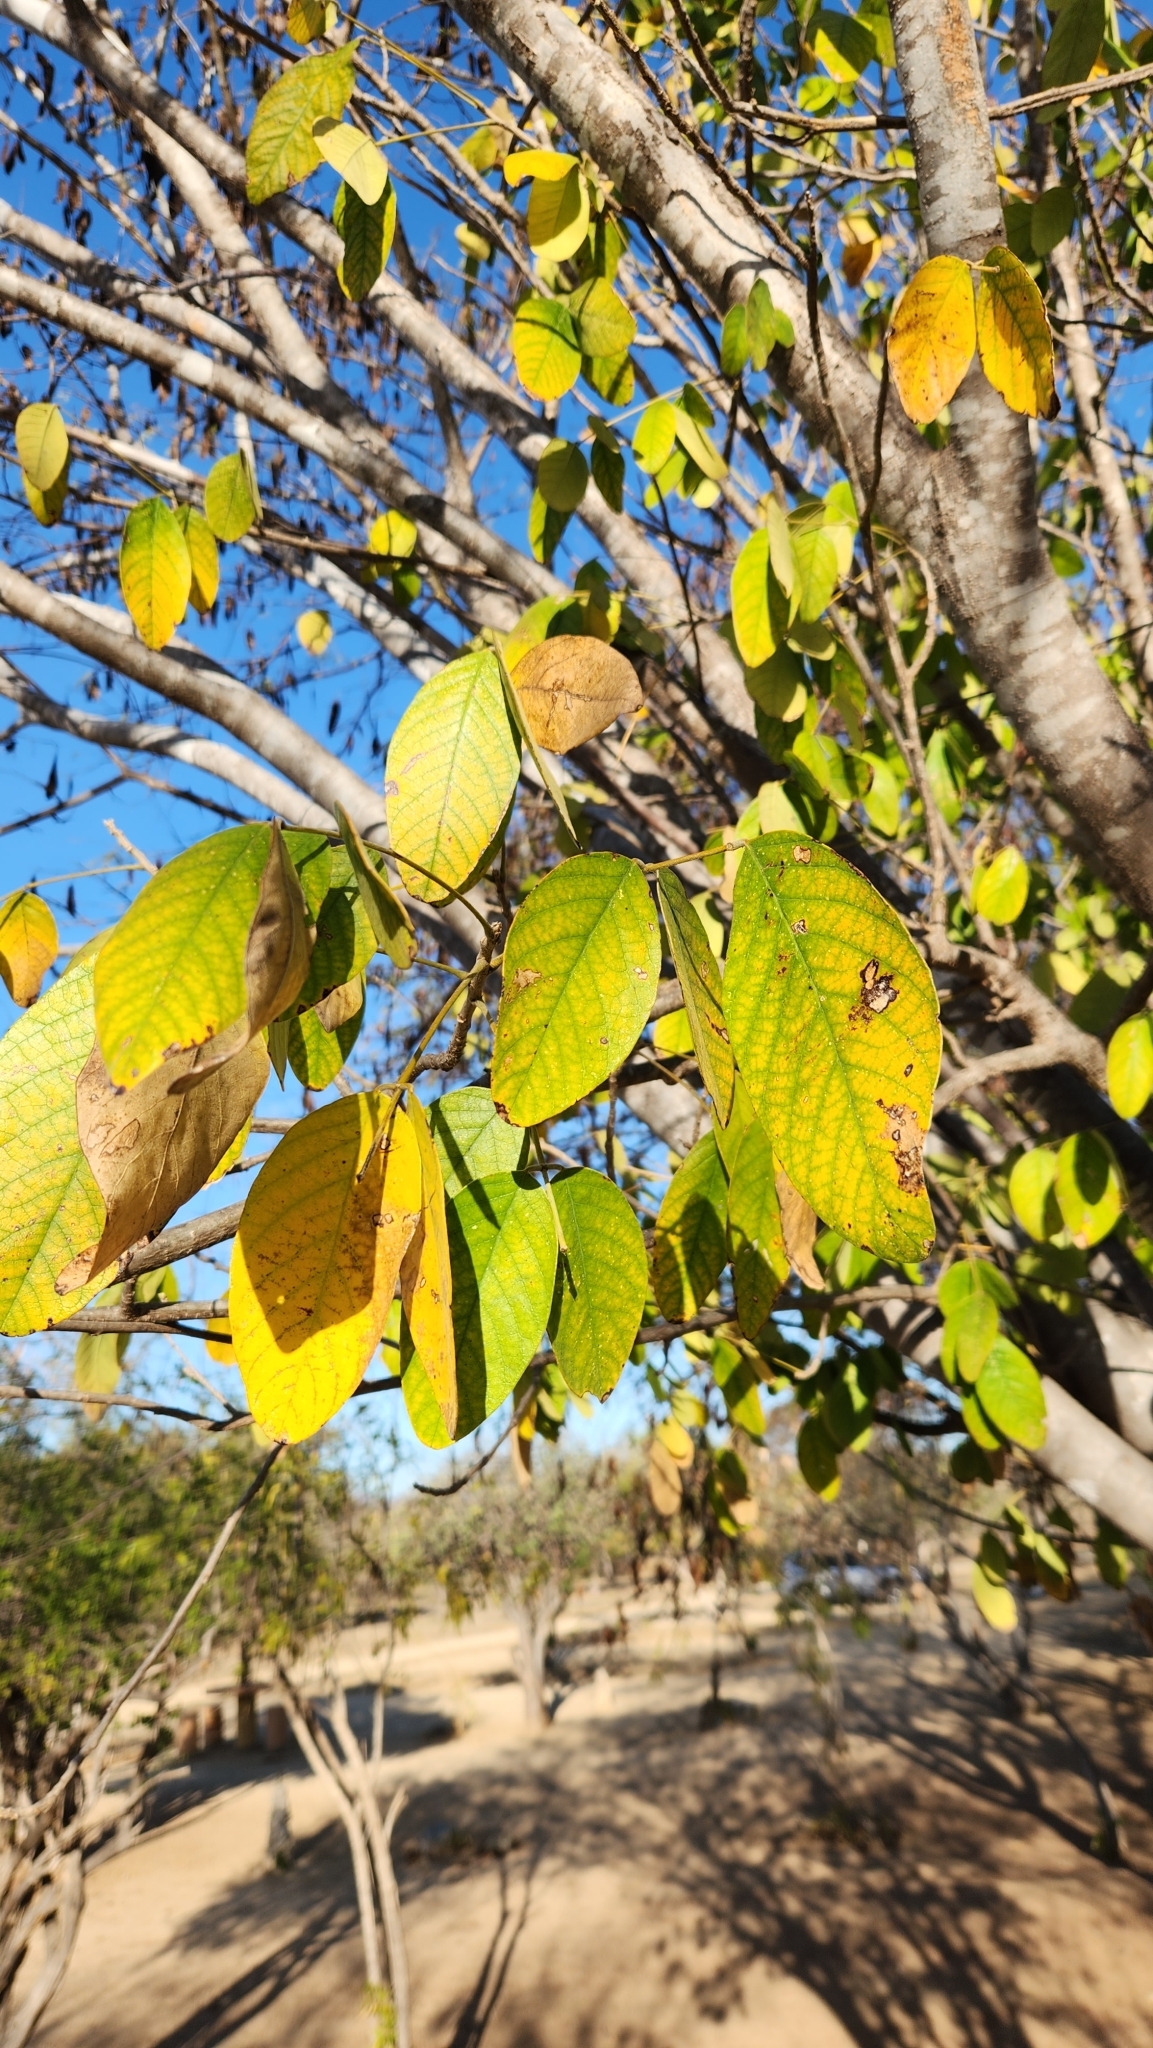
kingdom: Plantae
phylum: Tracheophyta
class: Magnoliopsida
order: Fabales
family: Fabaceae
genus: Senna
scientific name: Senna atomaria
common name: Flor de san jose
